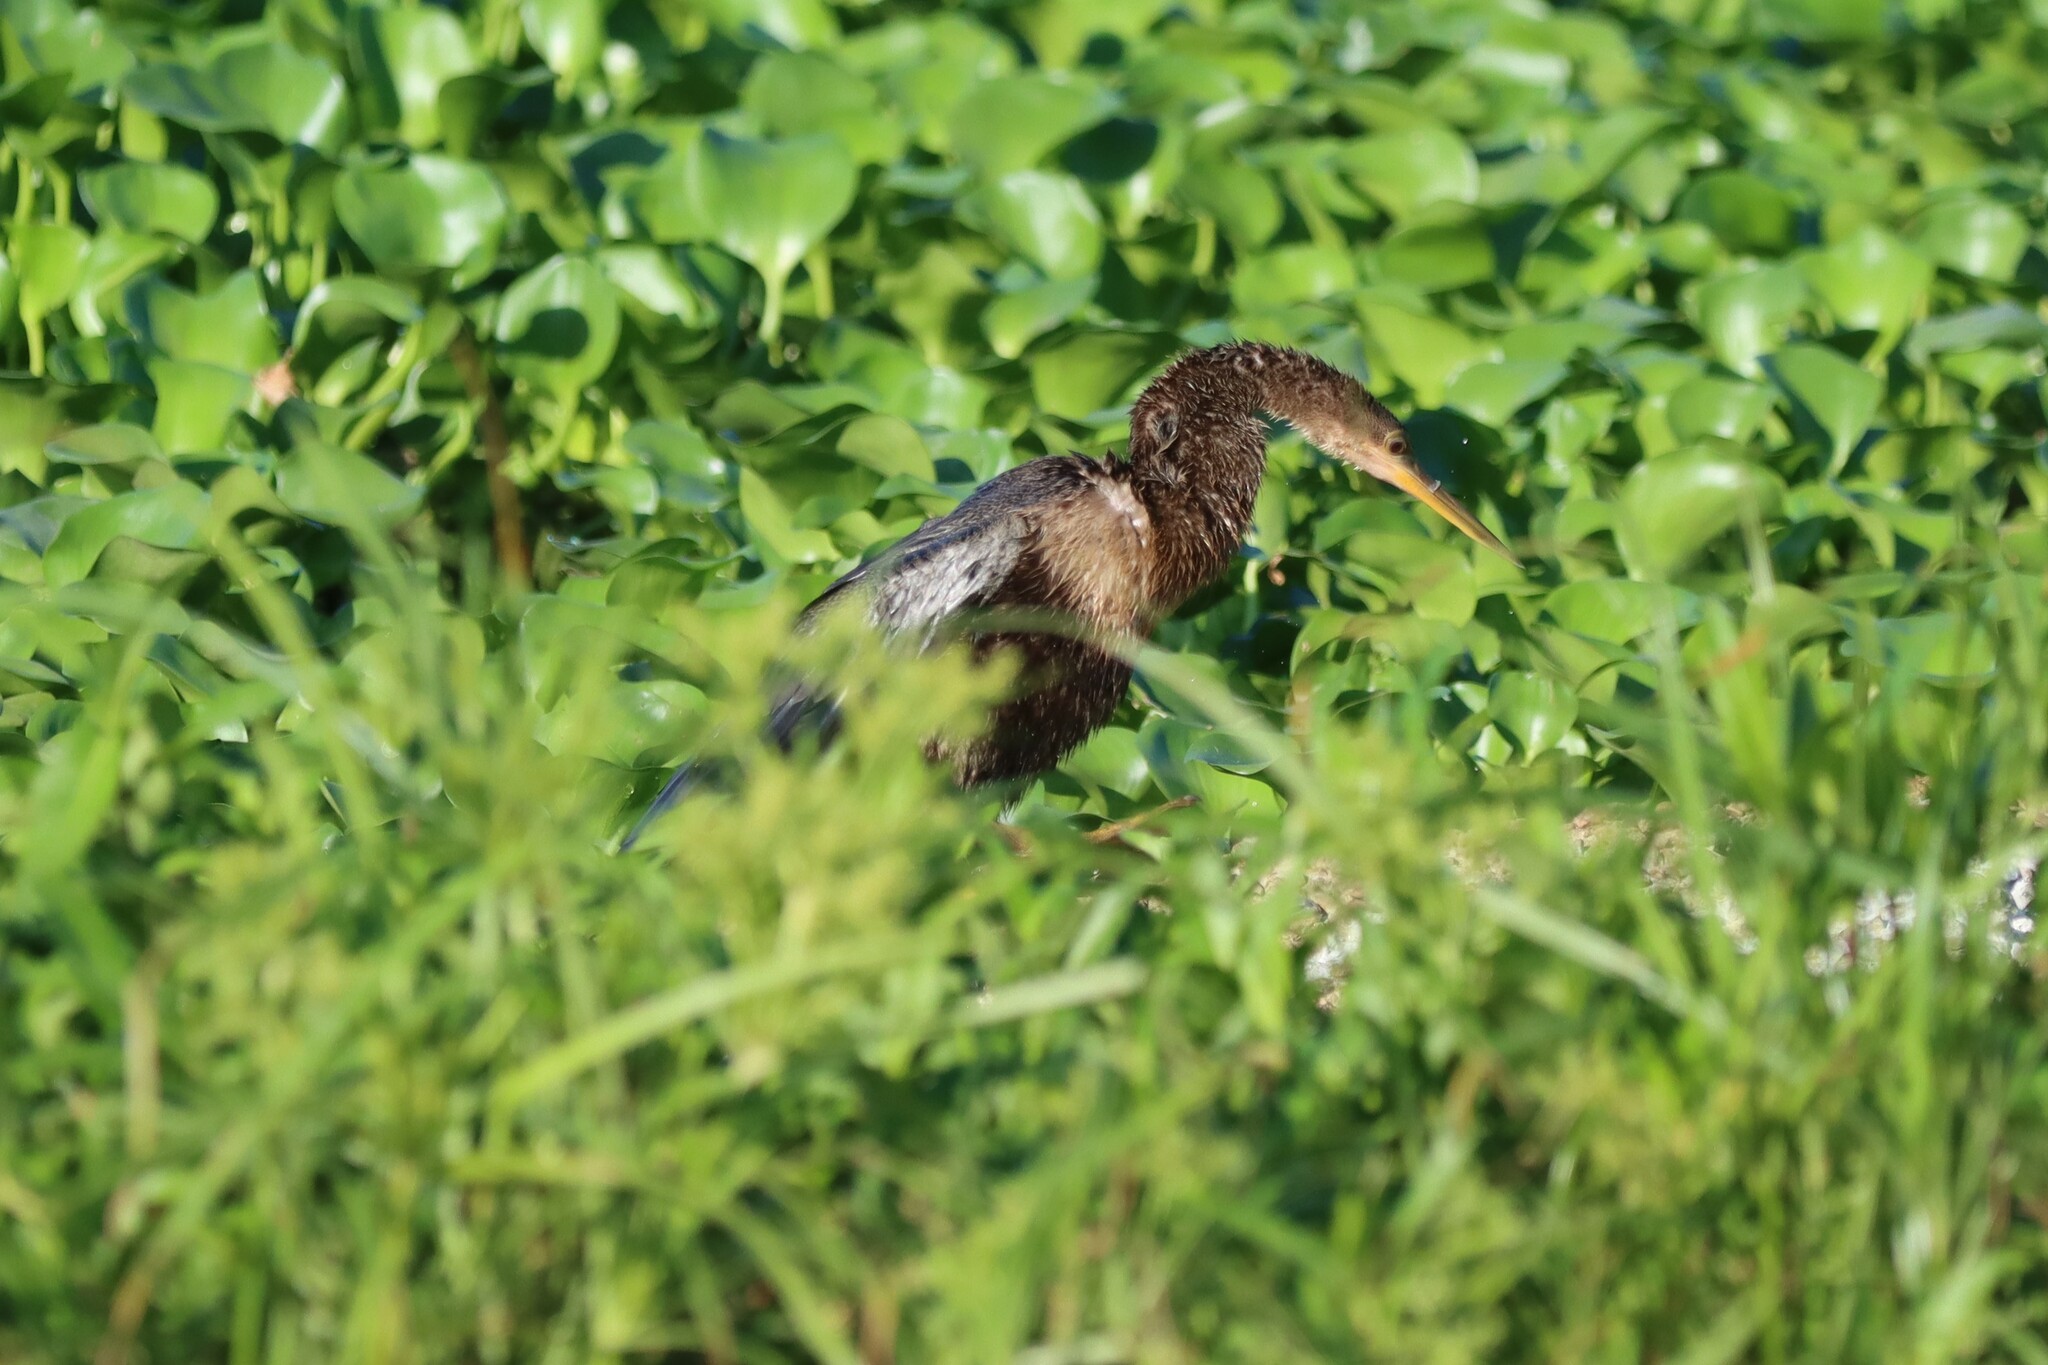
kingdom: Animalia
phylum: Chordata
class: Aves
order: Suliformes
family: Anhingidae
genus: Anhinga
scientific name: Anhinga anhinga
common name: Anhinga
